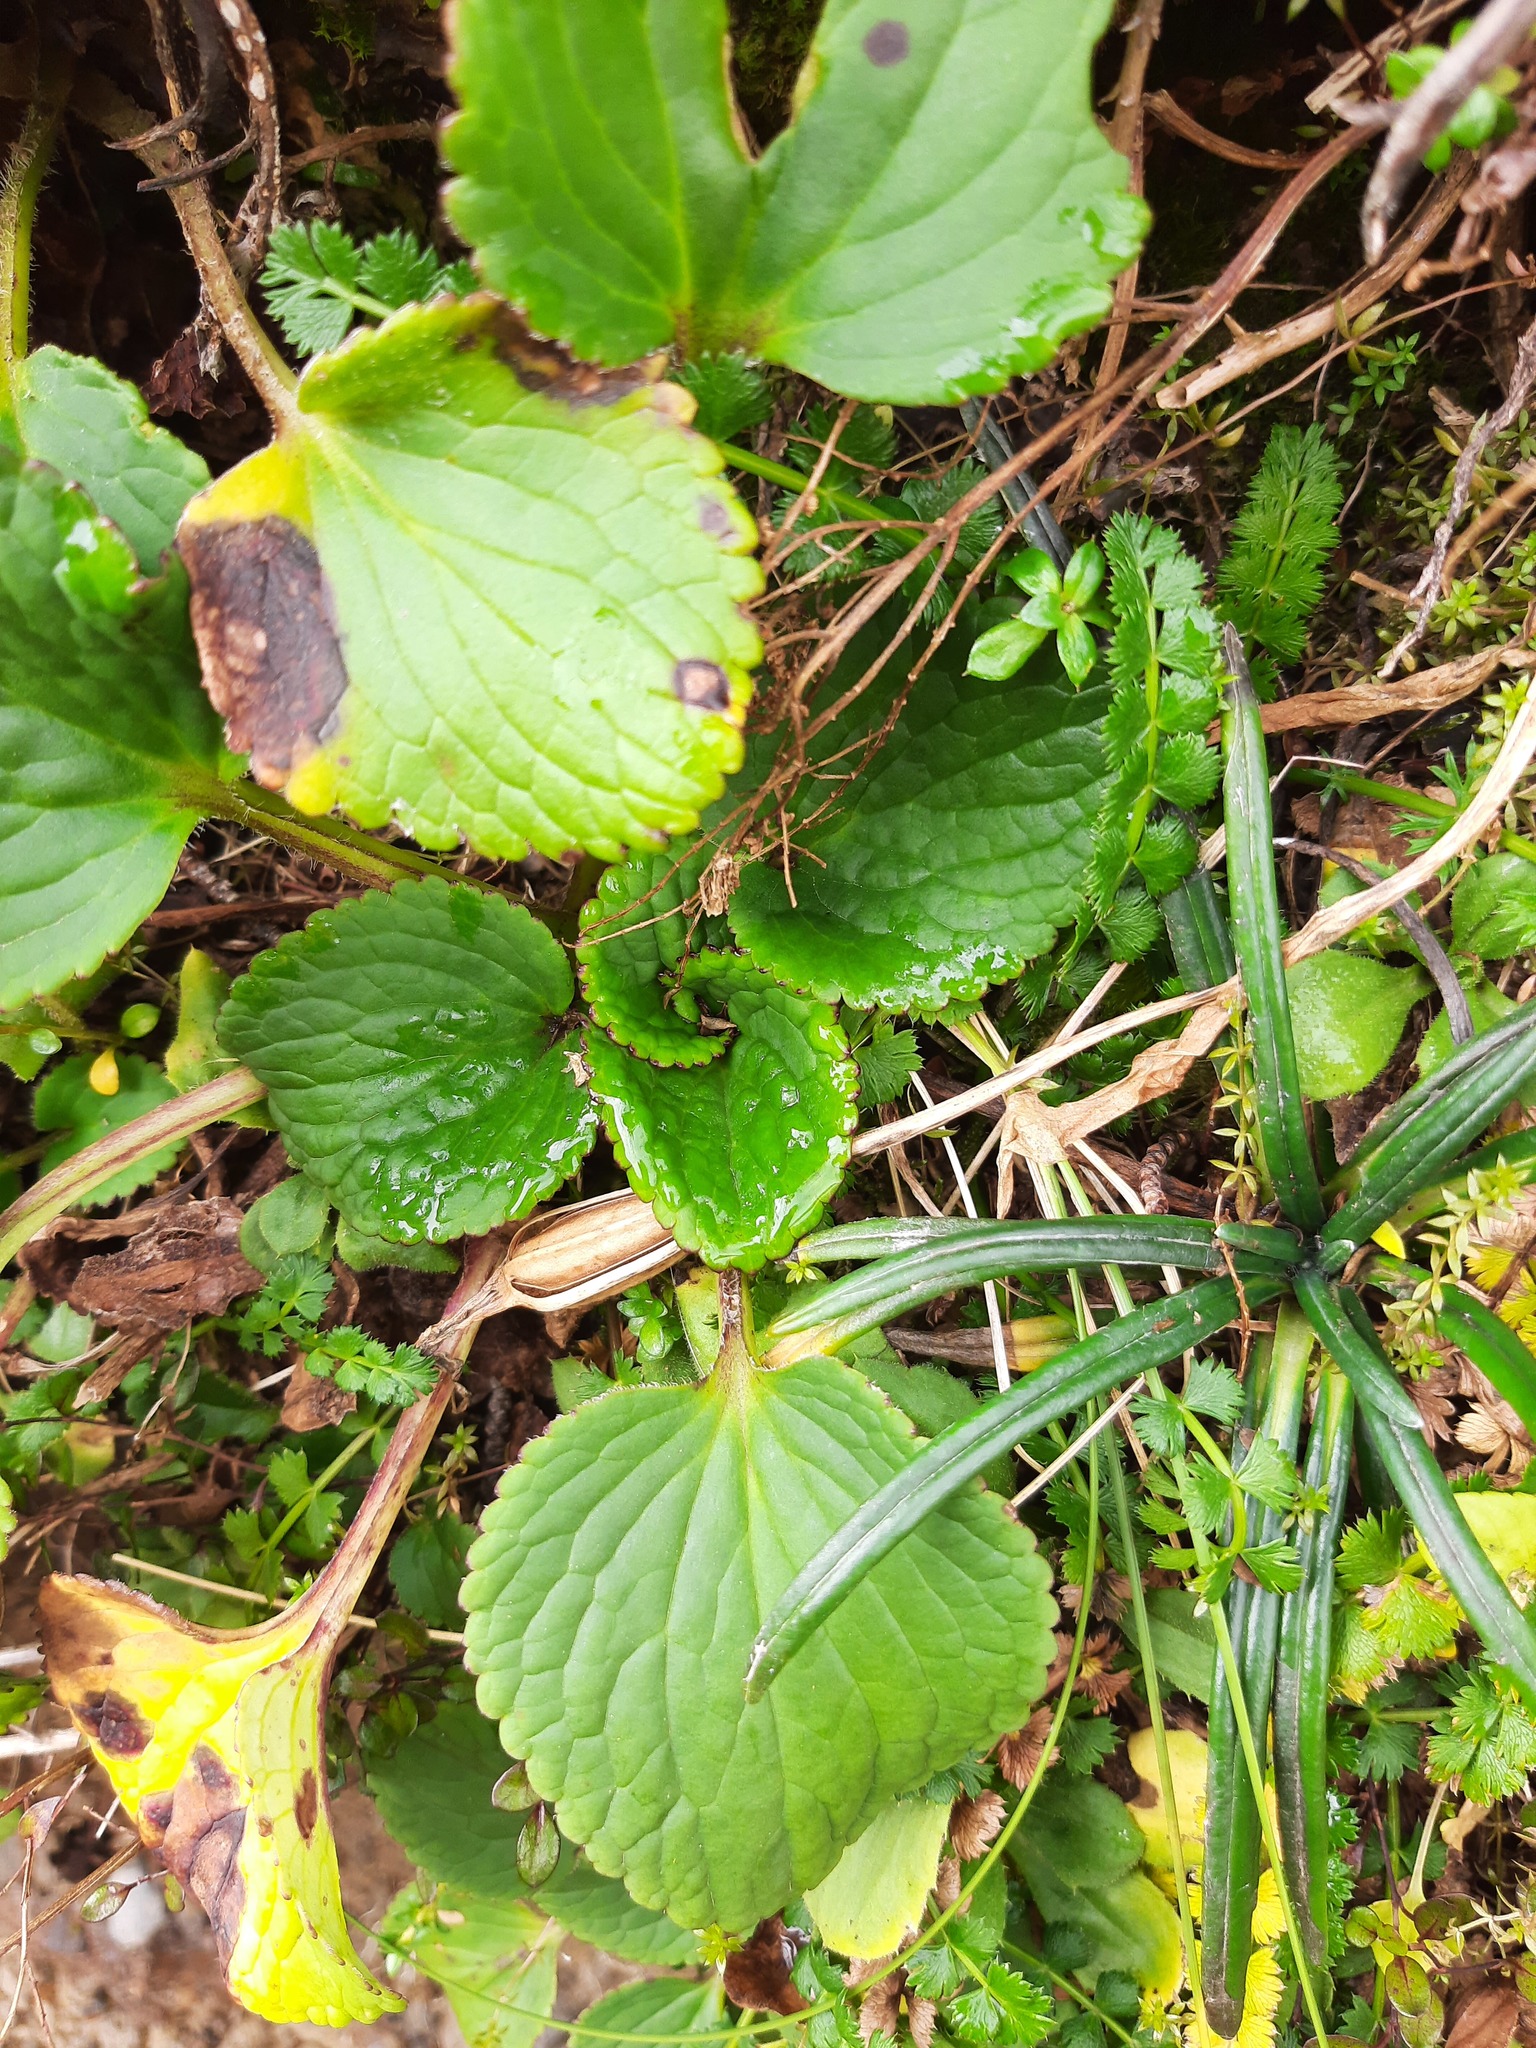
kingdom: Plantae
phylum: Tracheophyta
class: Magnoliopsida
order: Lamiales
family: Plantaginaceae
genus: Ourisia
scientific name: Ourisia macrophylla
